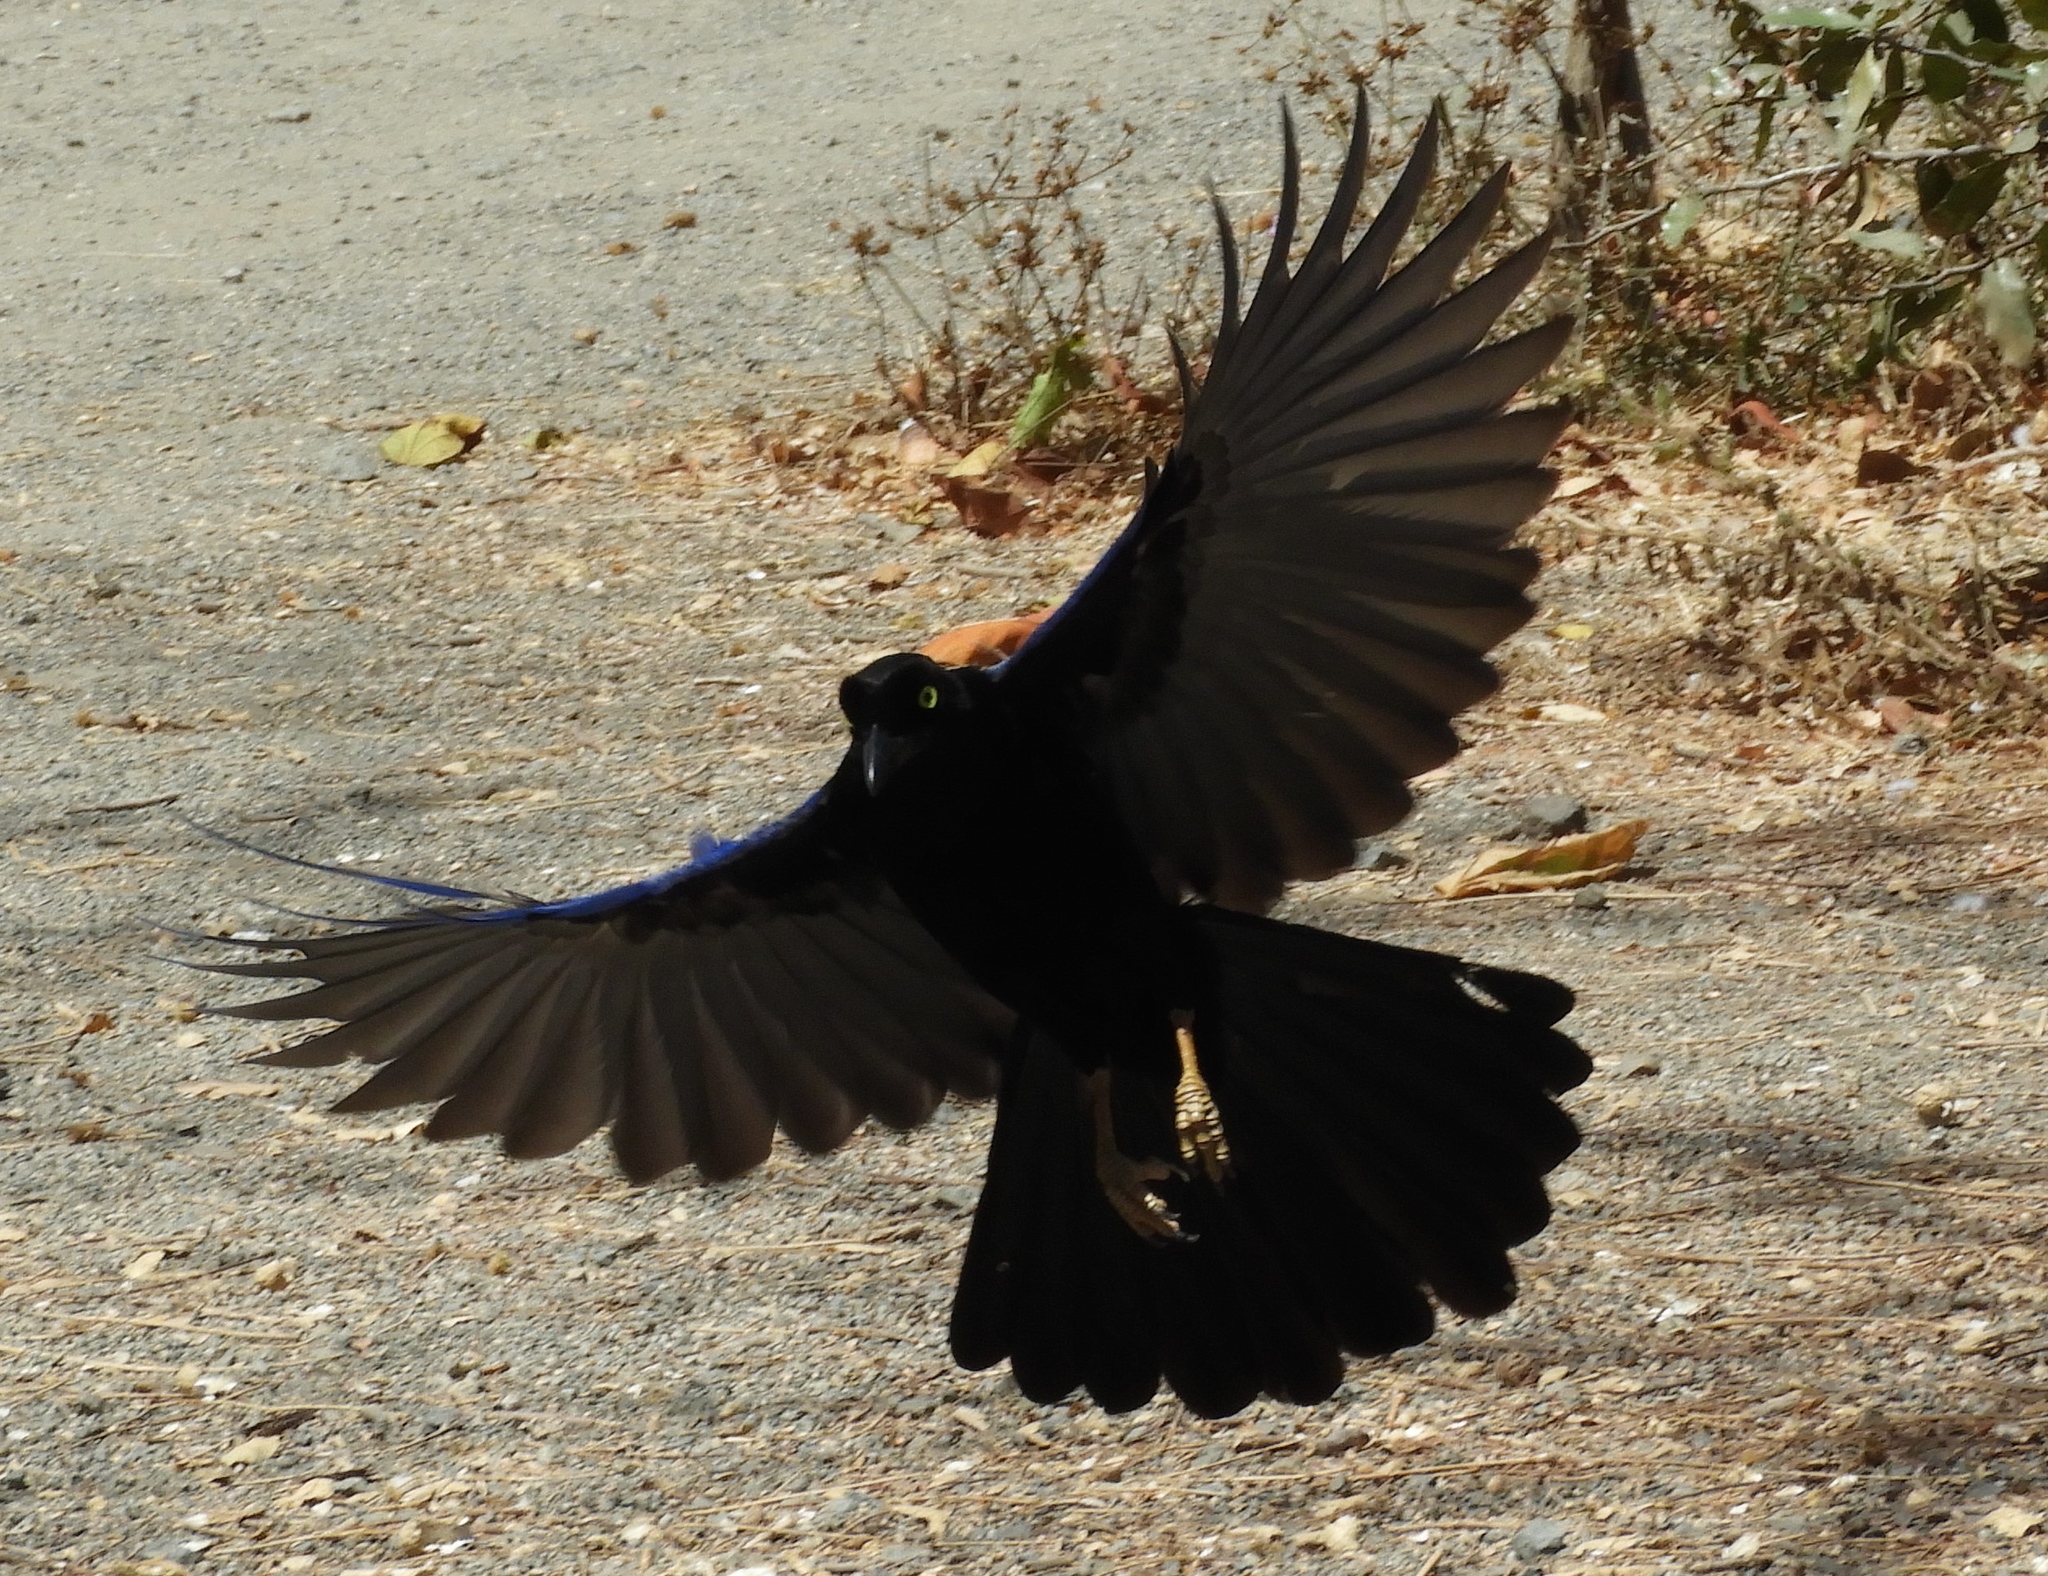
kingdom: Animalia
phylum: Chordata
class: Aves
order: Passeriformes
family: Corvidae
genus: Cyanocorax
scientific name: Cyanocorax beecheii
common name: Purplish-backed jay
